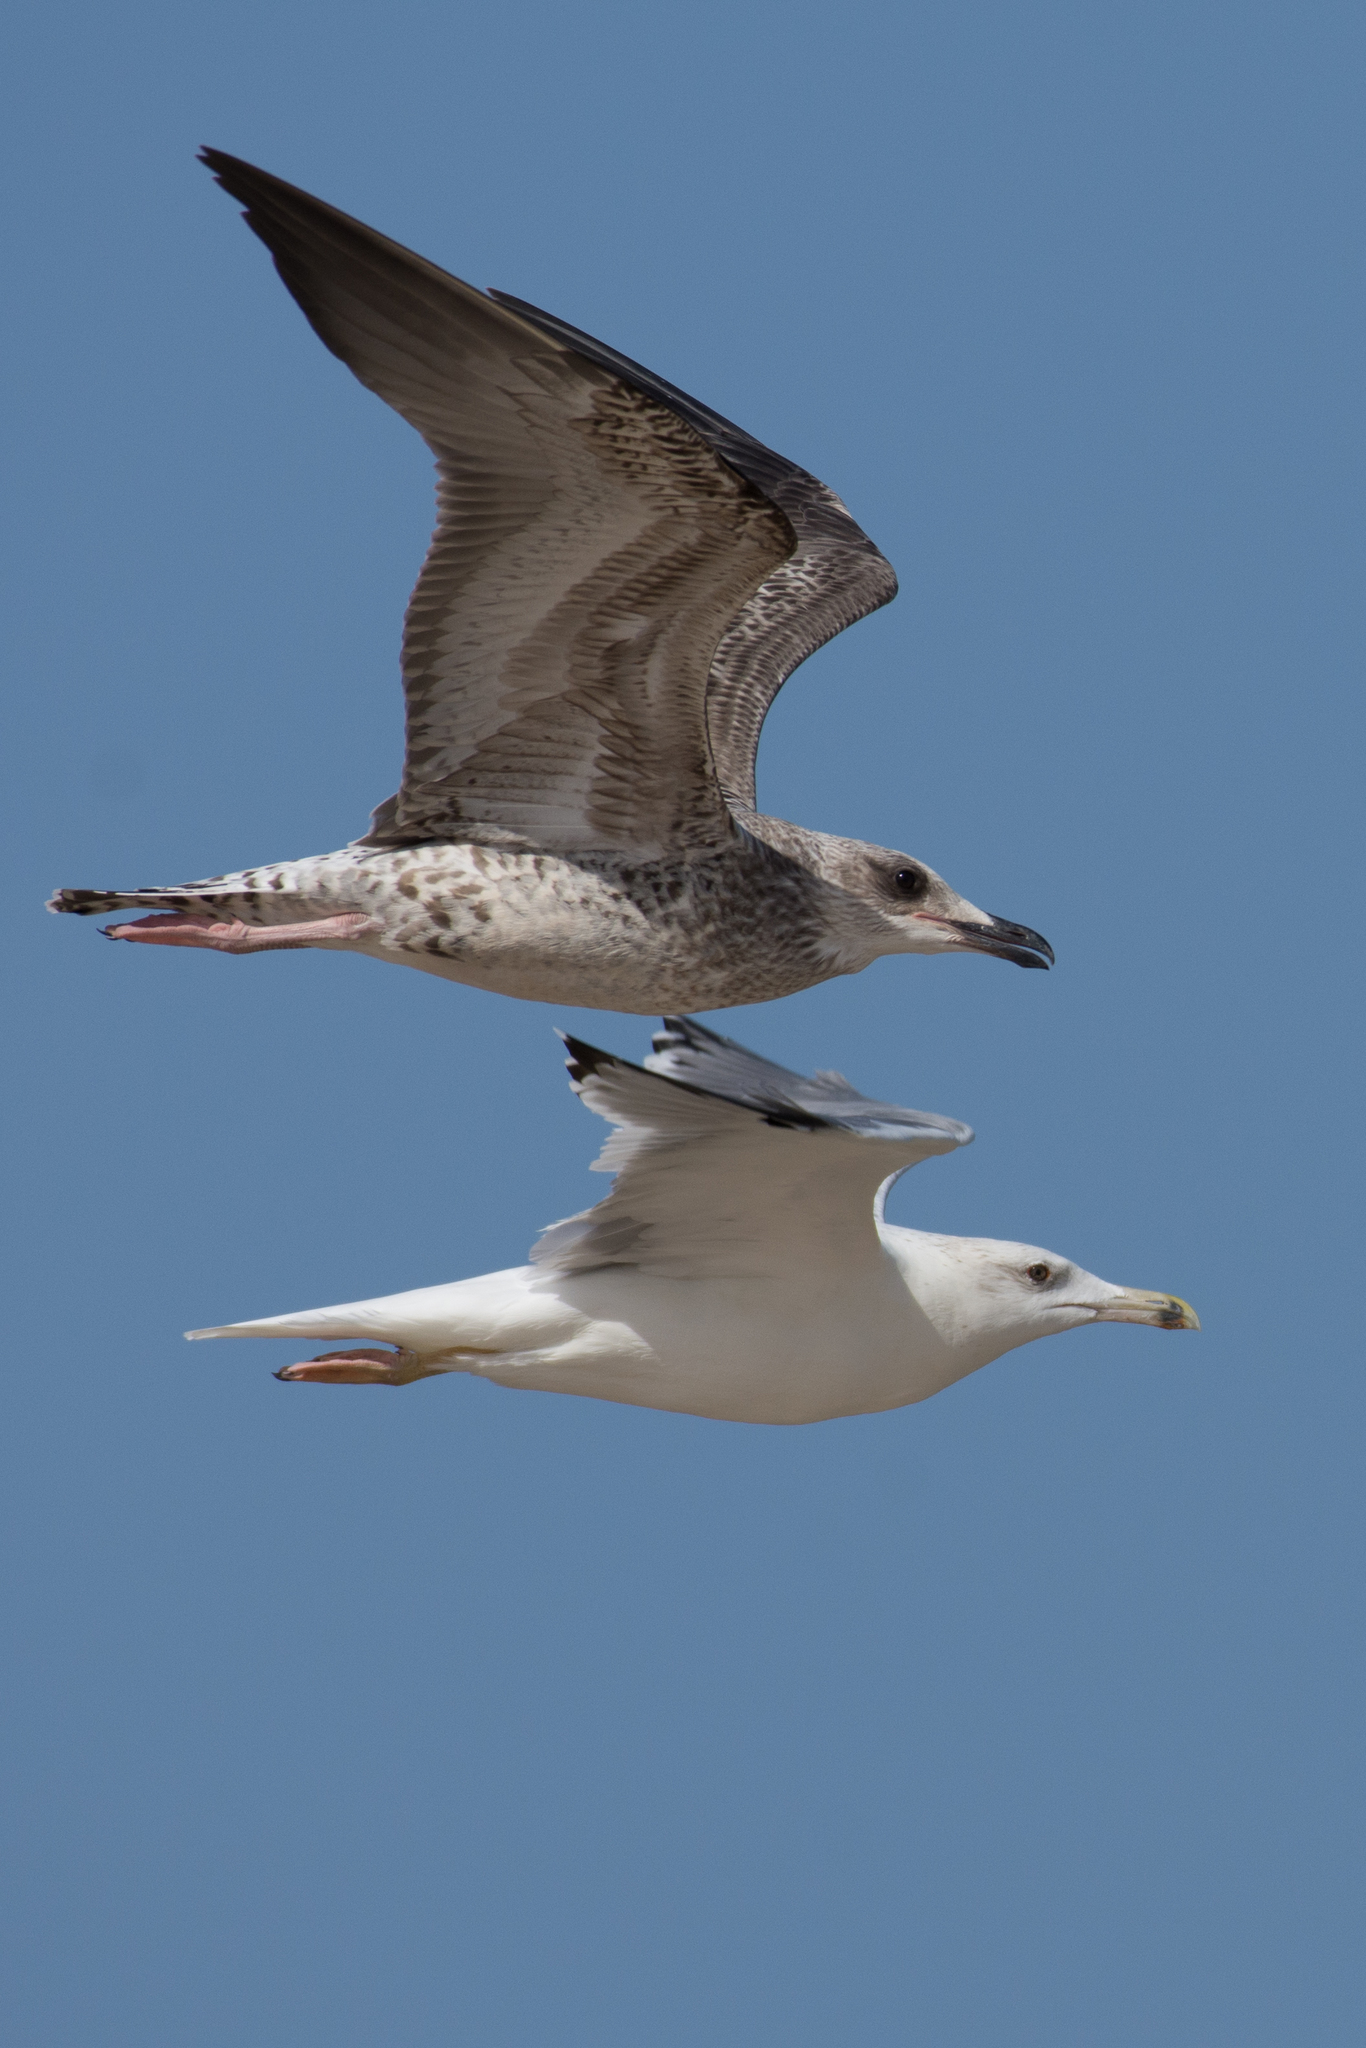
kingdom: Animalia
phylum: Chordata
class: Aves
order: Charadriiformes
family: Laridae
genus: Larus
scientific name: Larus cachinnans
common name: Caspian gull
